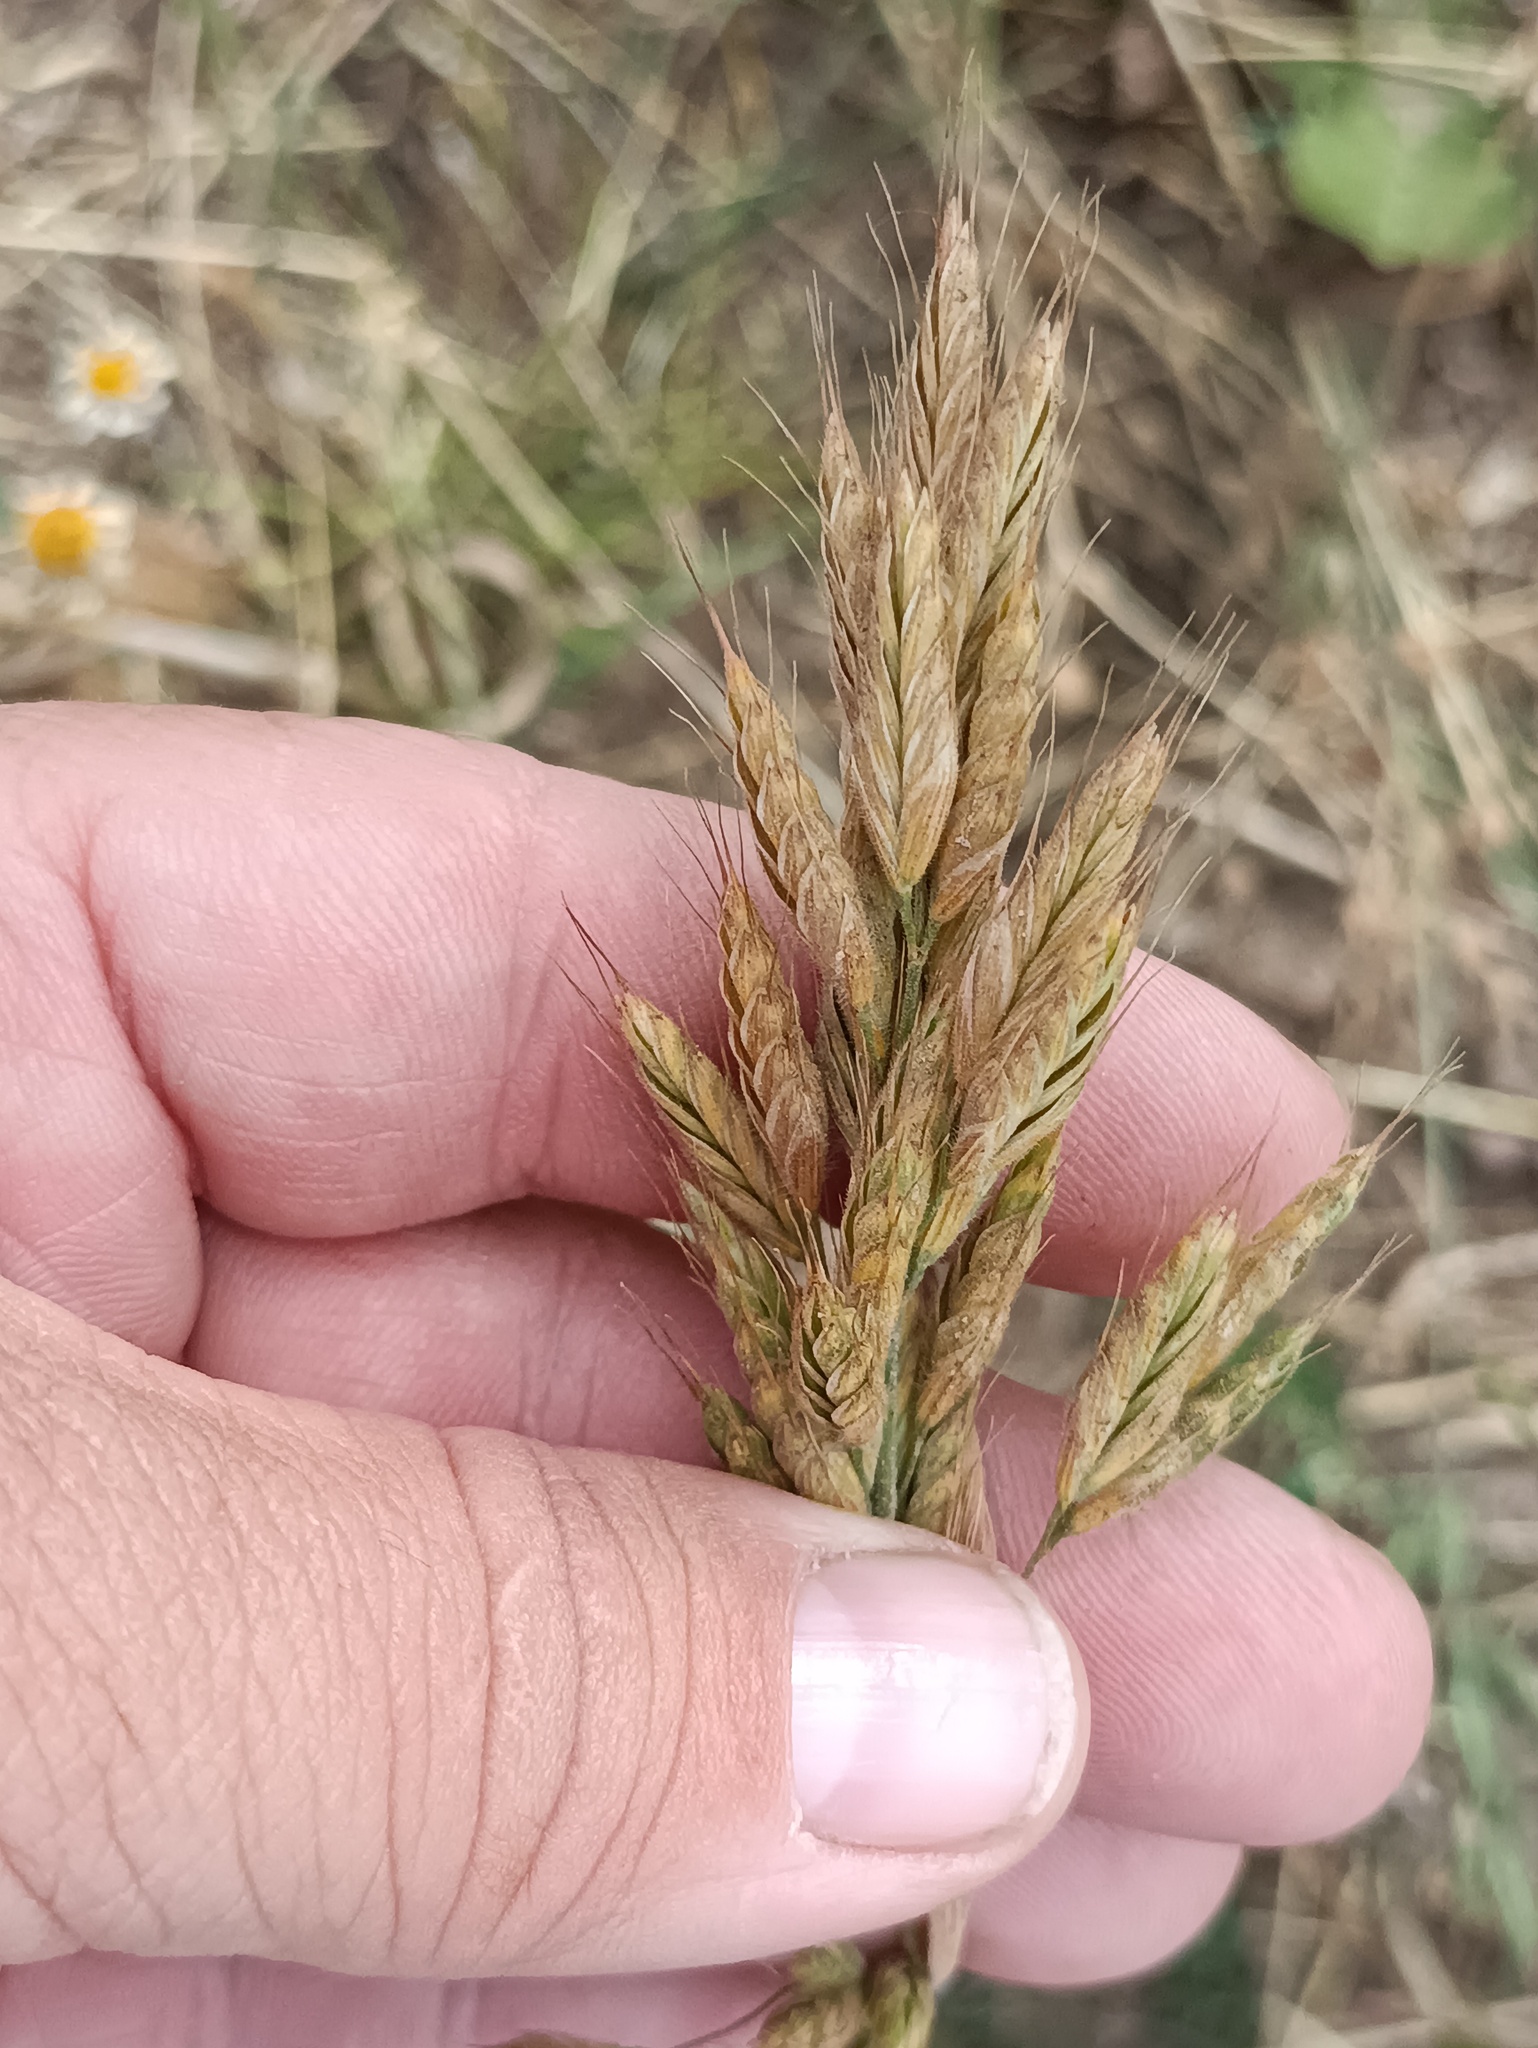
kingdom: Plantae
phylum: Tracheophyta
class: Liliopsida
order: Poales
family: Poaceae
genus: Bromus
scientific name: Bromus hordeaceus
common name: Soft brome
